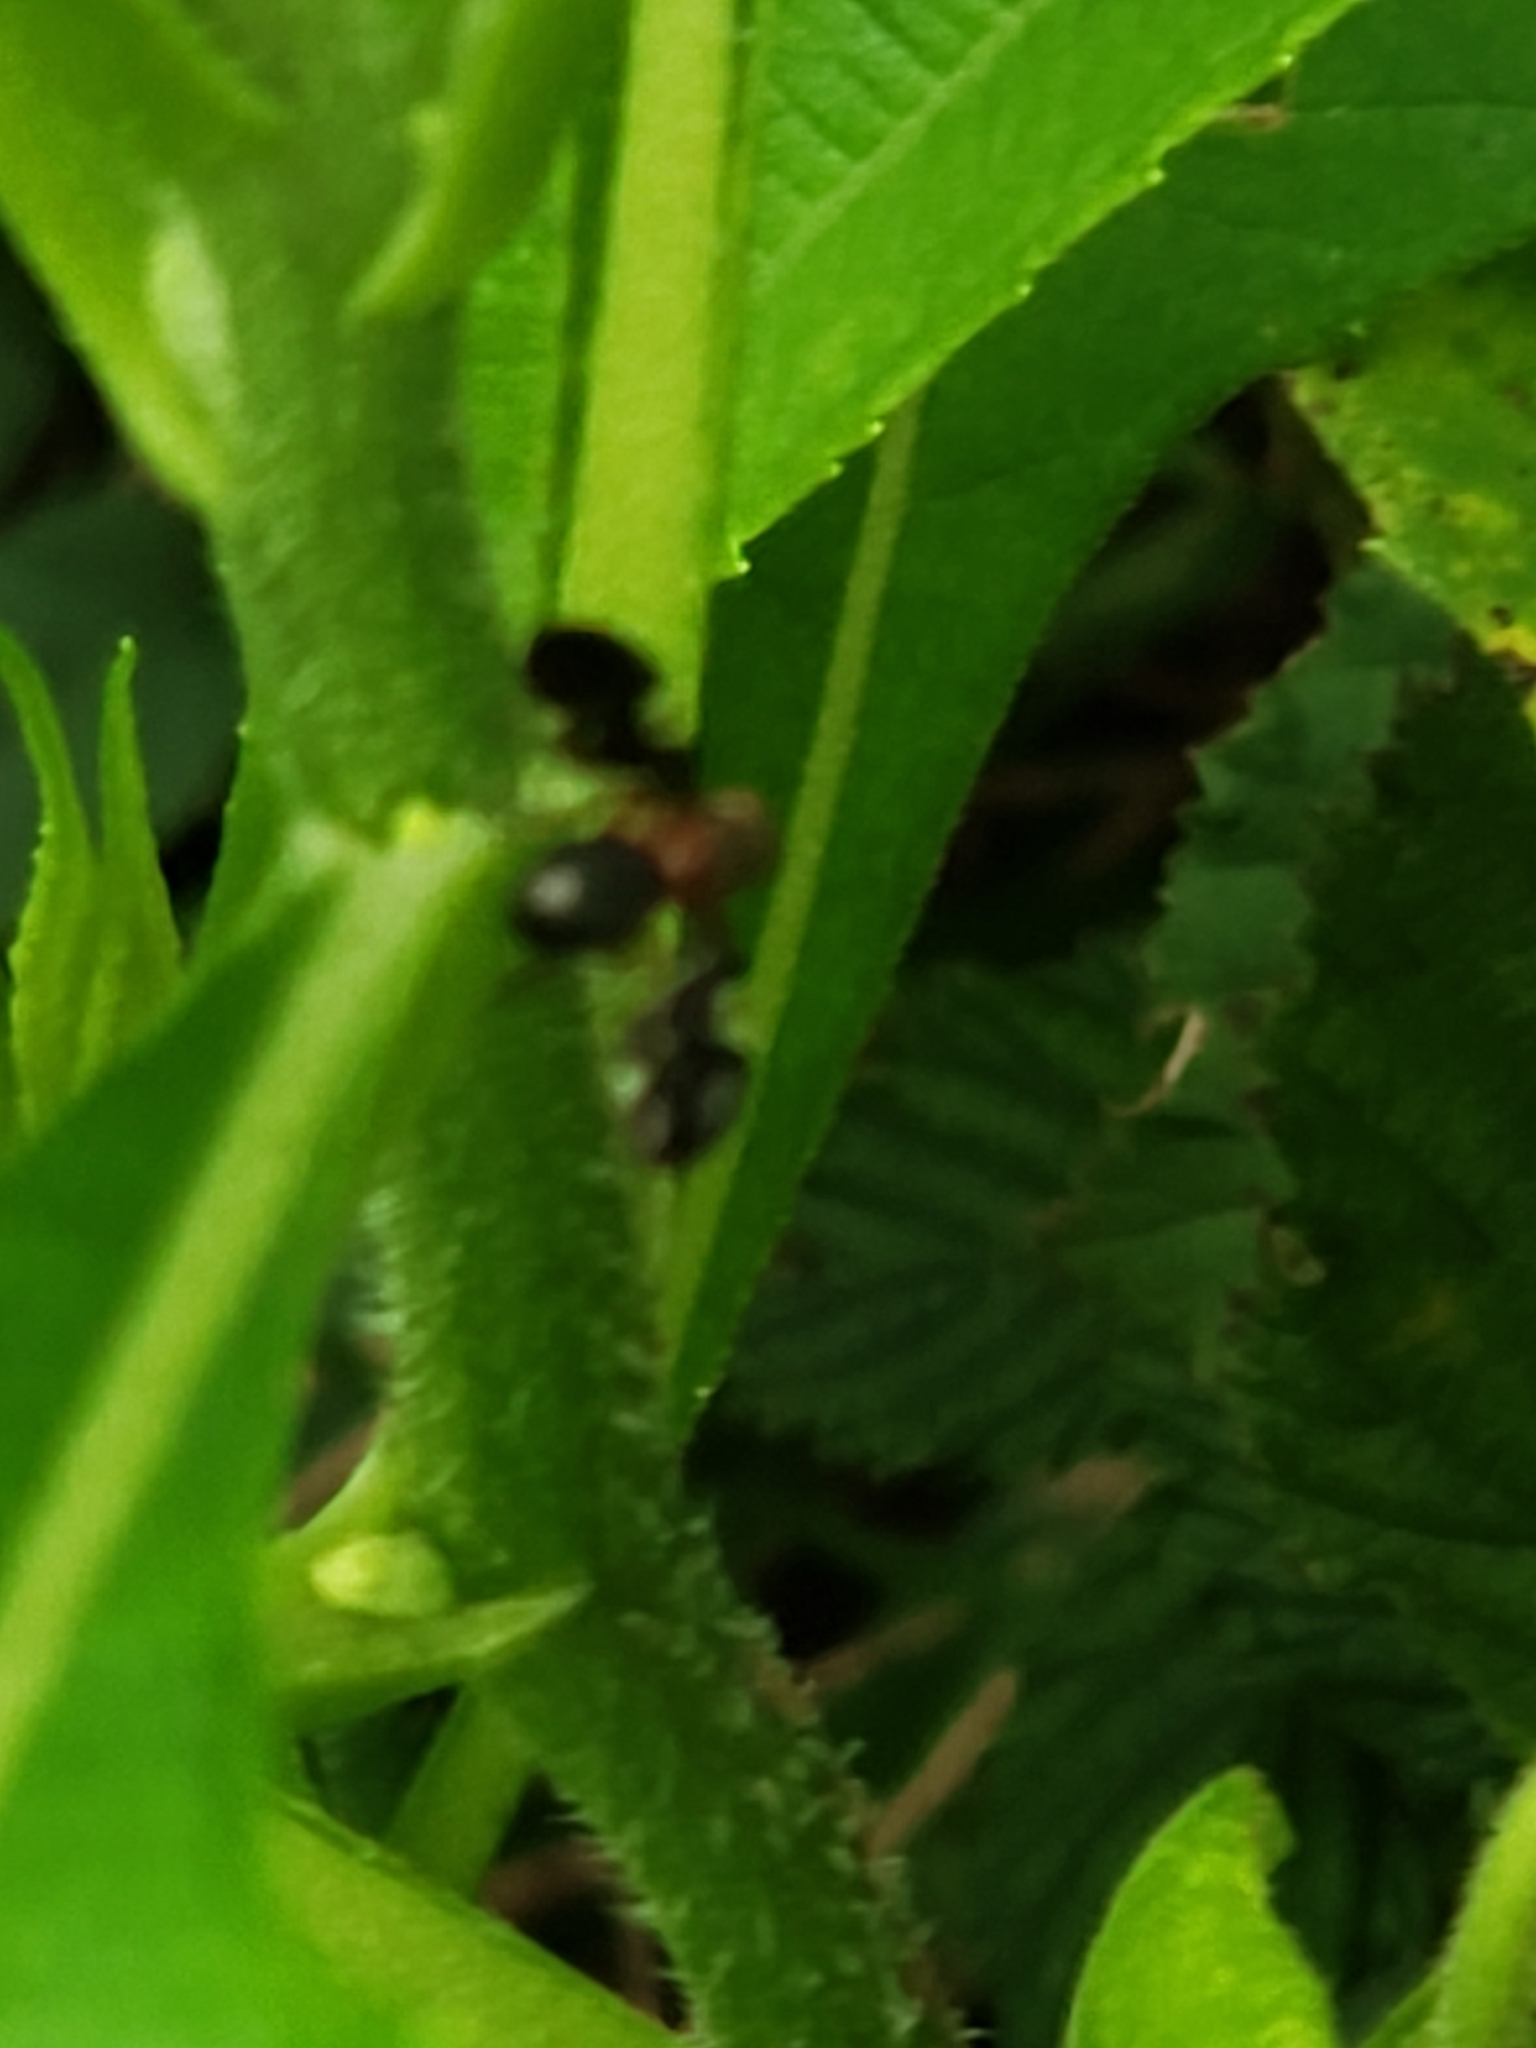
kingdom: Animalia
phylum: Arthropoda
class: Insecta
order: Diptera
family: Ulidiidae
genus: Delphinia
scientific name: Delphinia picta
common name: Common picture-winged fly
